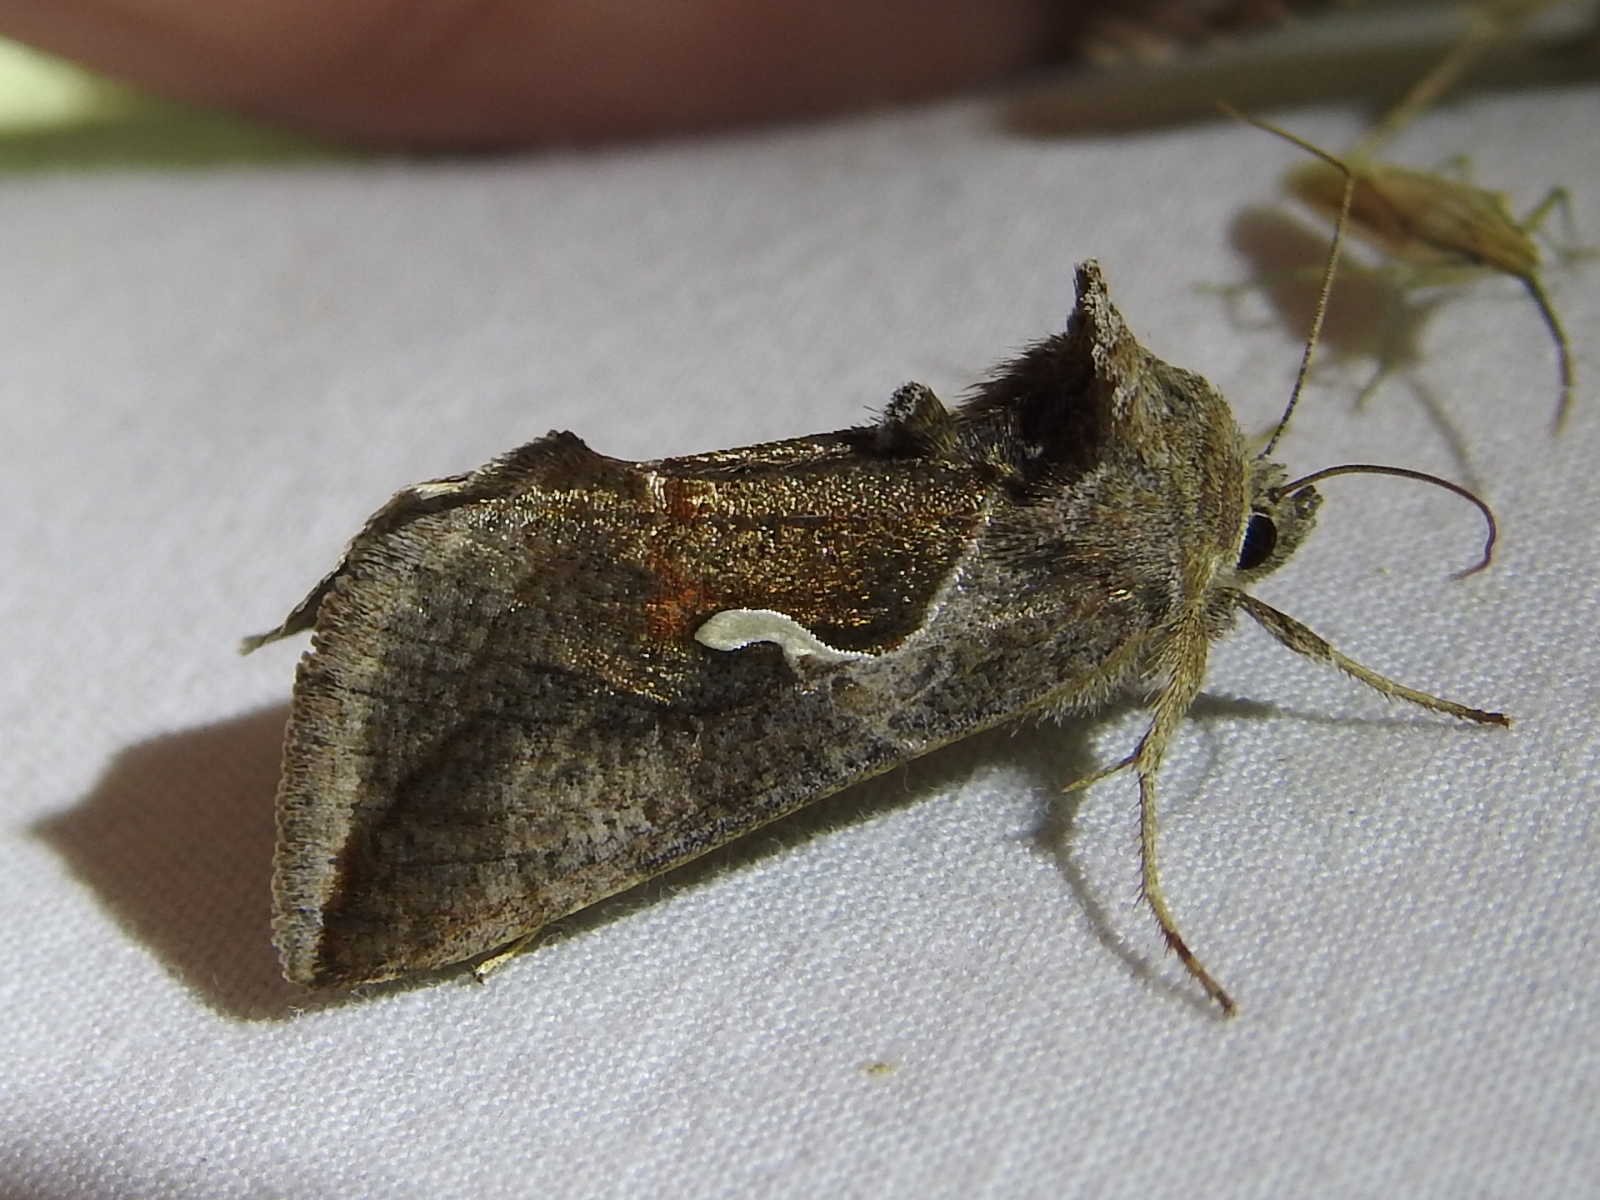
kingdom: Animalia
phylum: Arthropoda
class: Insecta
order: Lepidoptera
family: Noctuidae
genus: Anagrapha
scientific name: Anagrapha falcifera
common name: Celery looper
